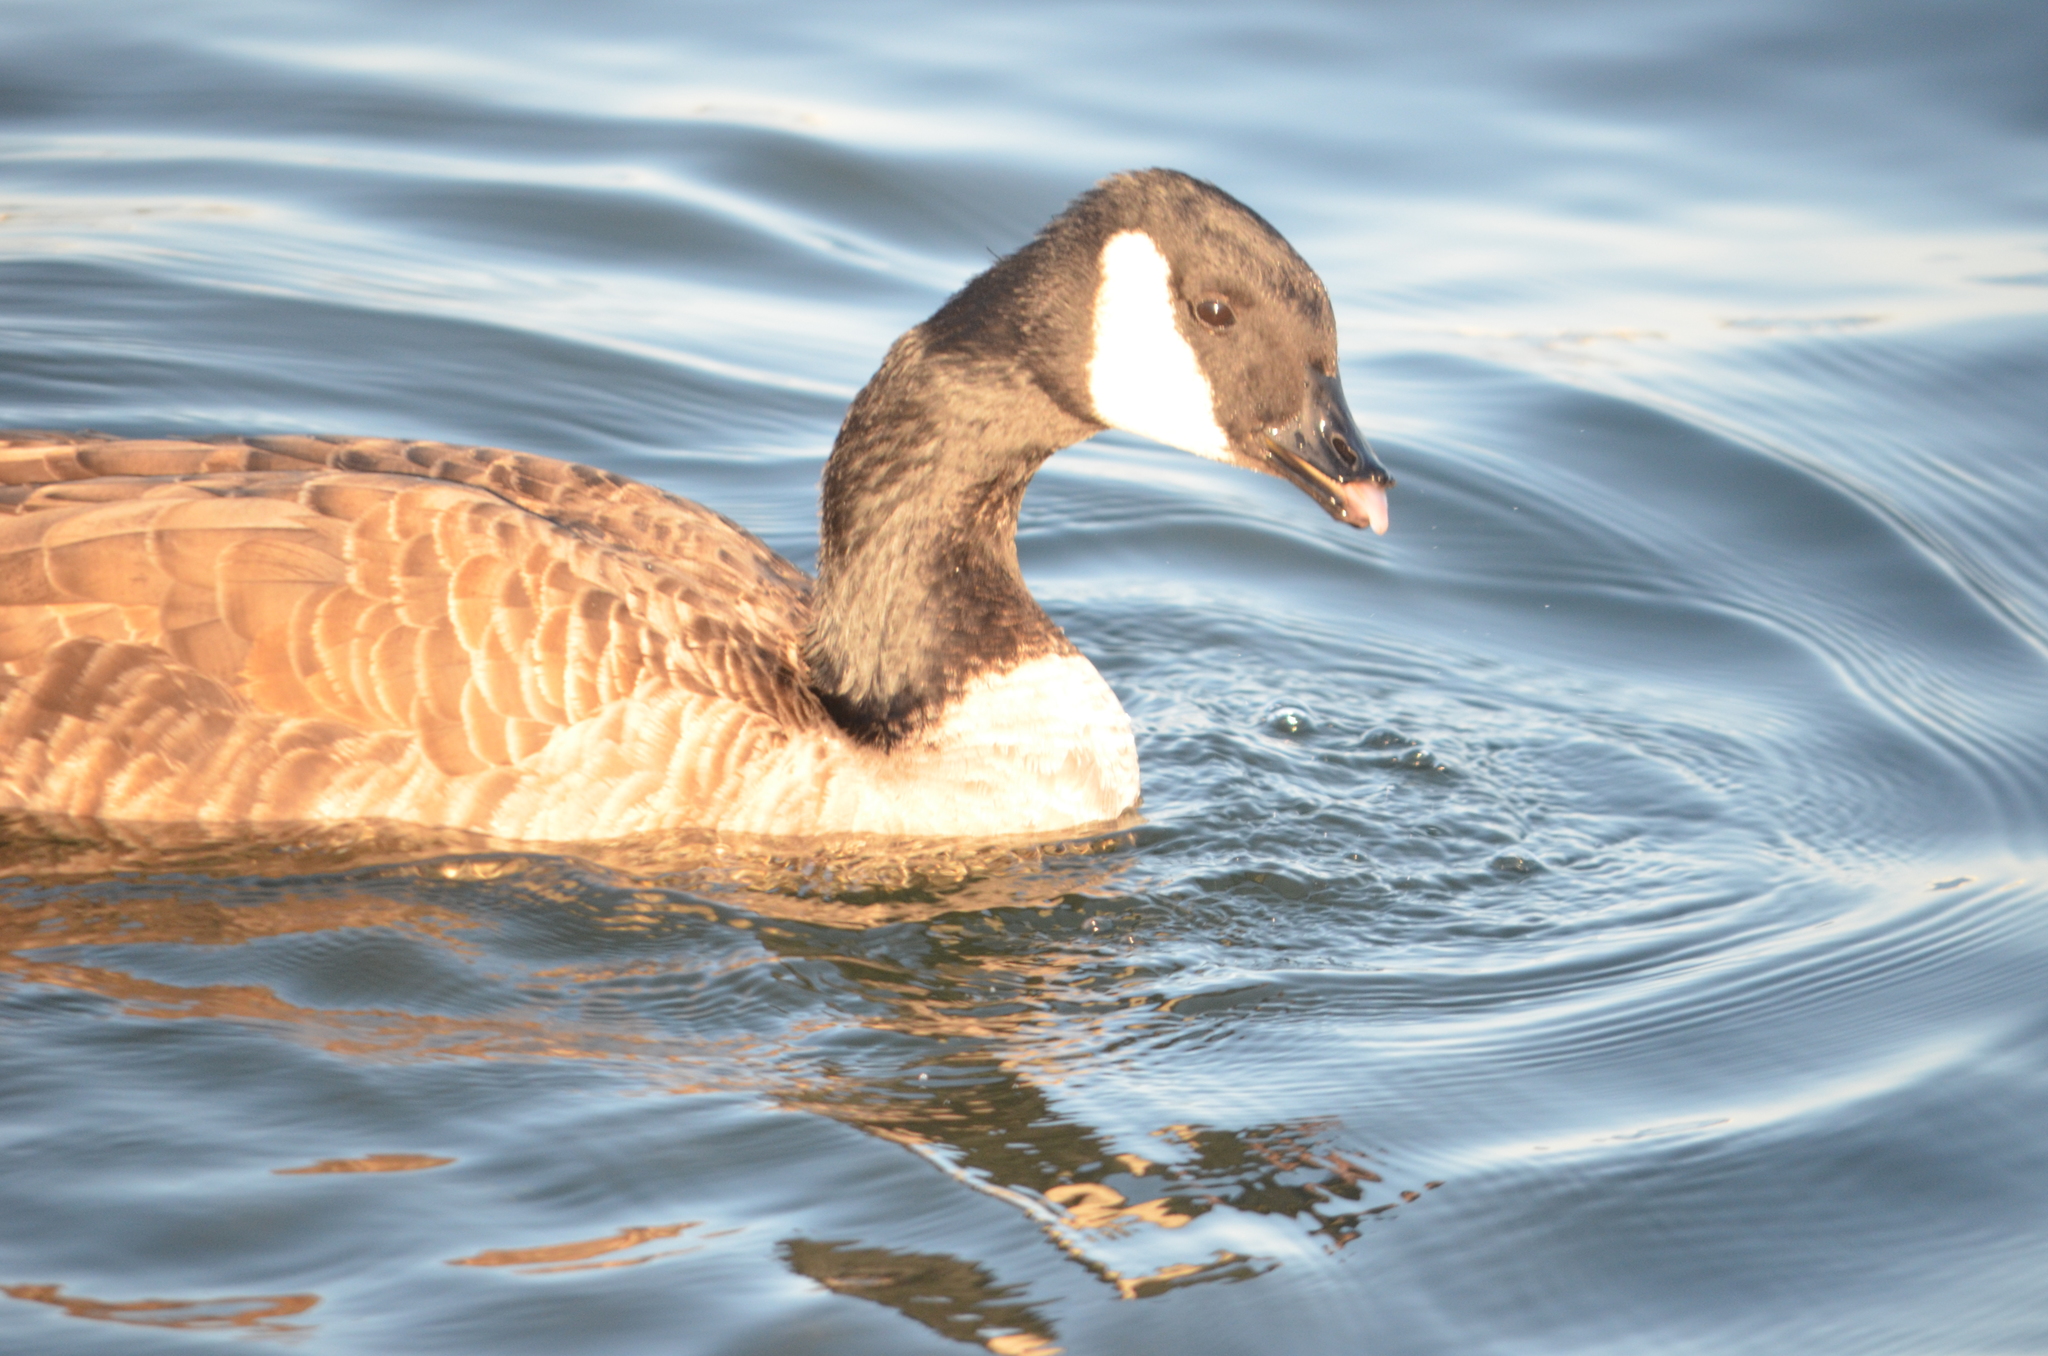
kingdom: Animalia
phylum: Chordata
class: Aves
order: Anseriformes
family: Anatidae
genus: Branta
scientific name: Branta canadensis
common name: Canada goose
